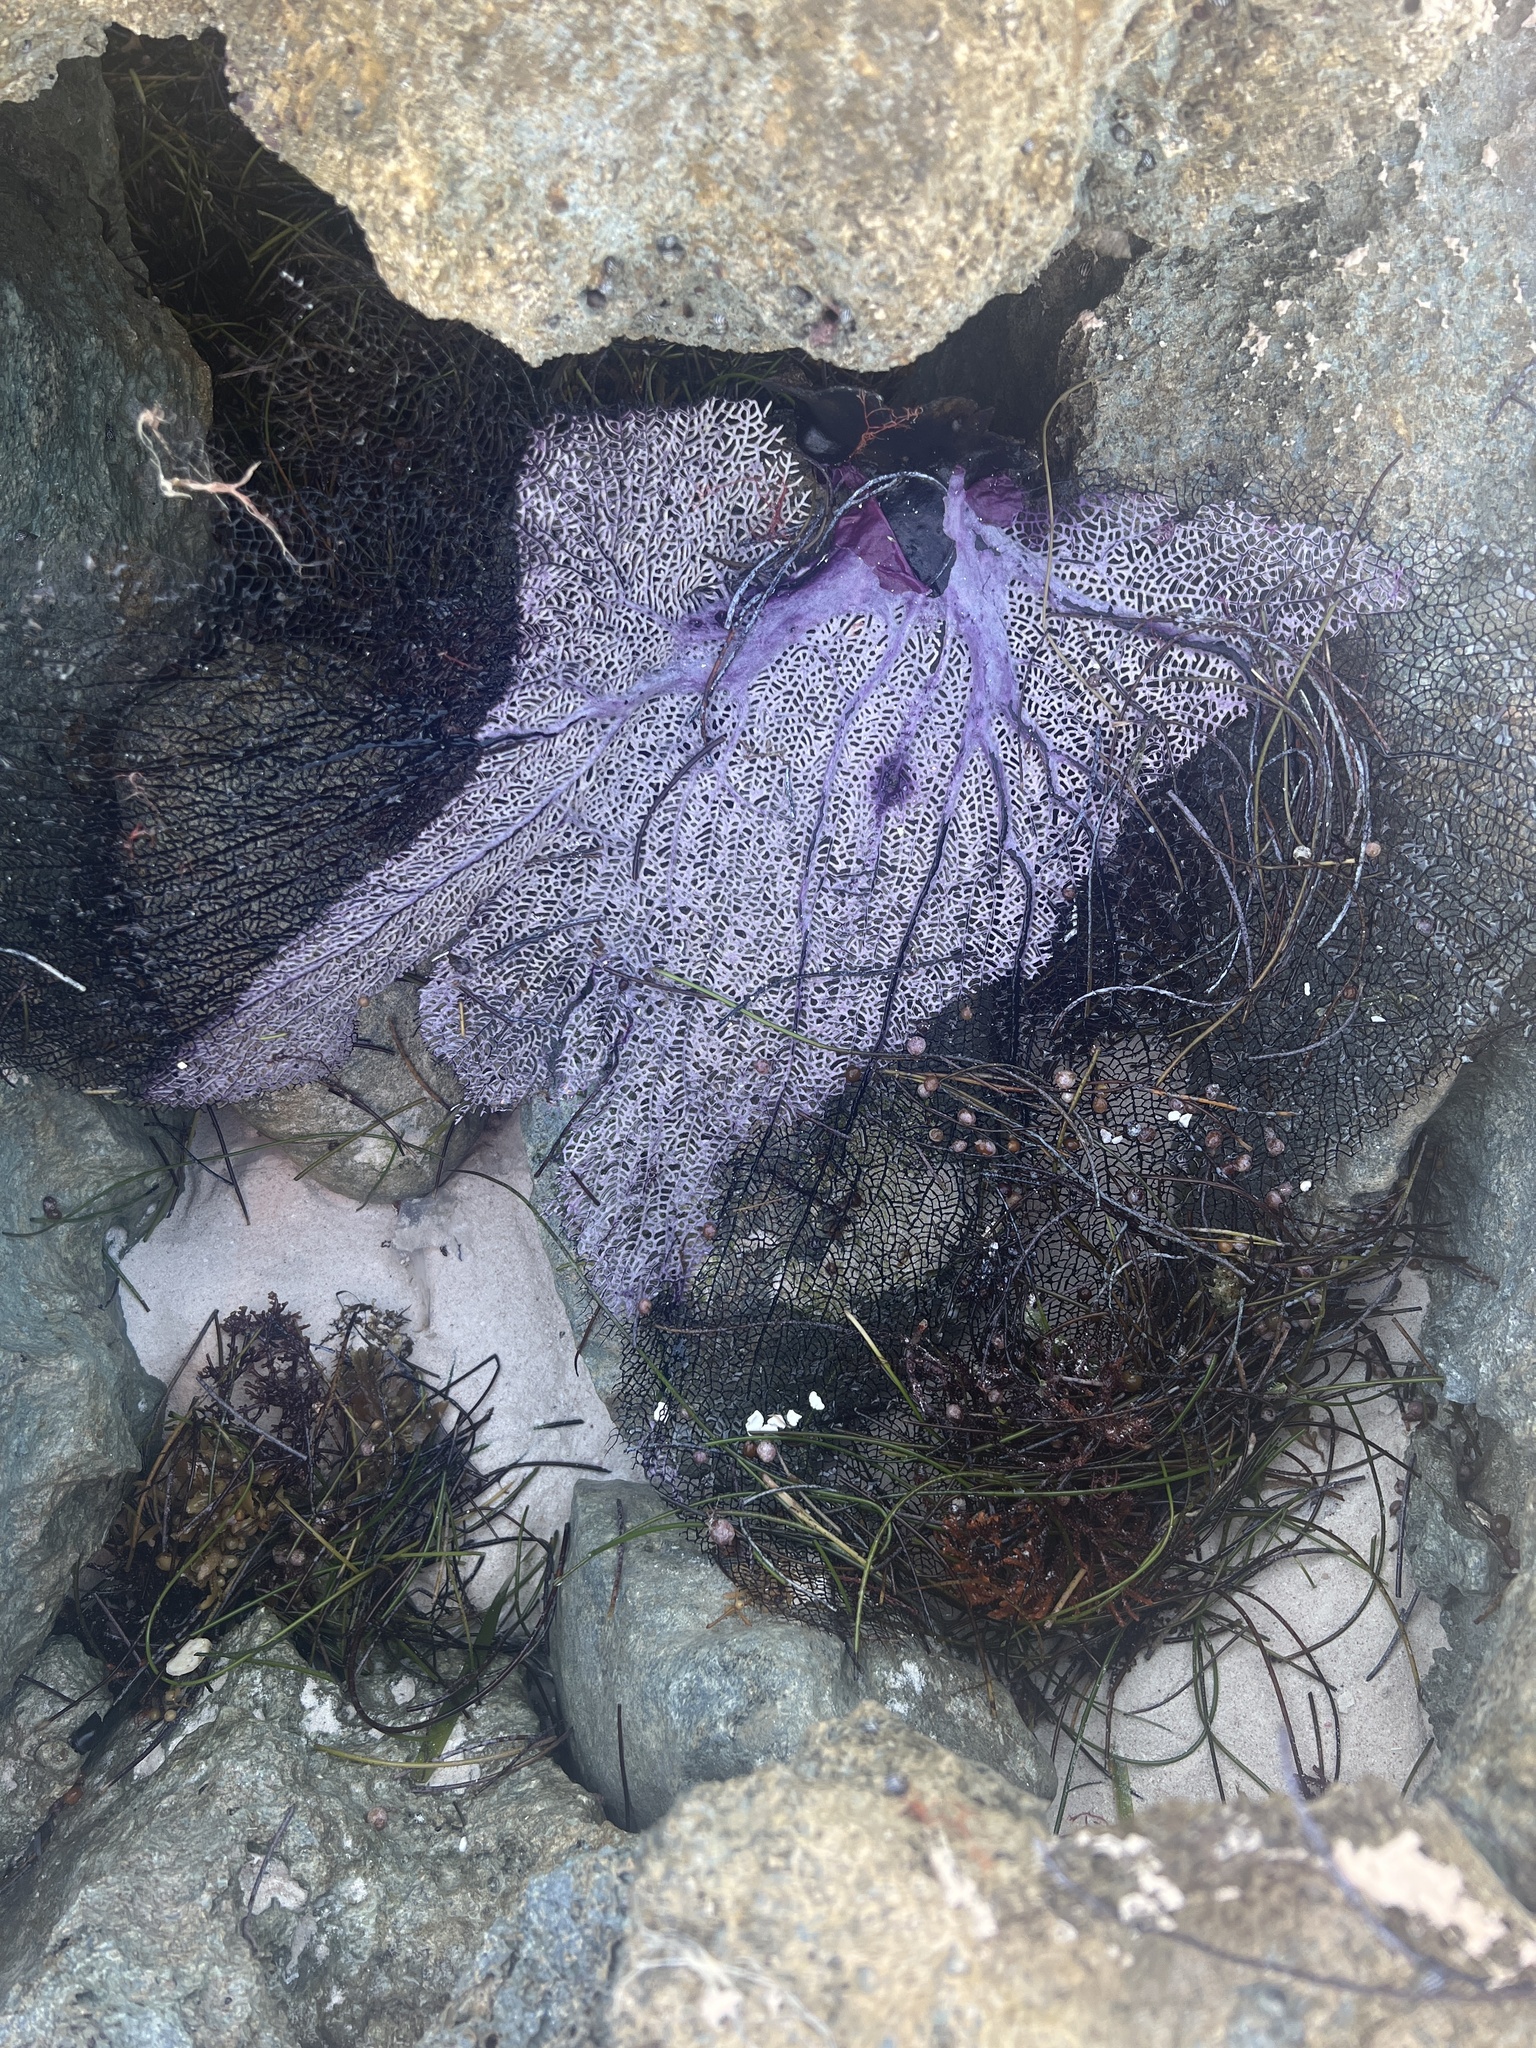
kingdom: Animalia
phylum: Cnidaria
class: Anthozoa
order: Malacalcyonacea
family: Gorgoniidae
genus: Gorgonia
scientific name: Gorgonia ventalina
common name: Common sea fan
